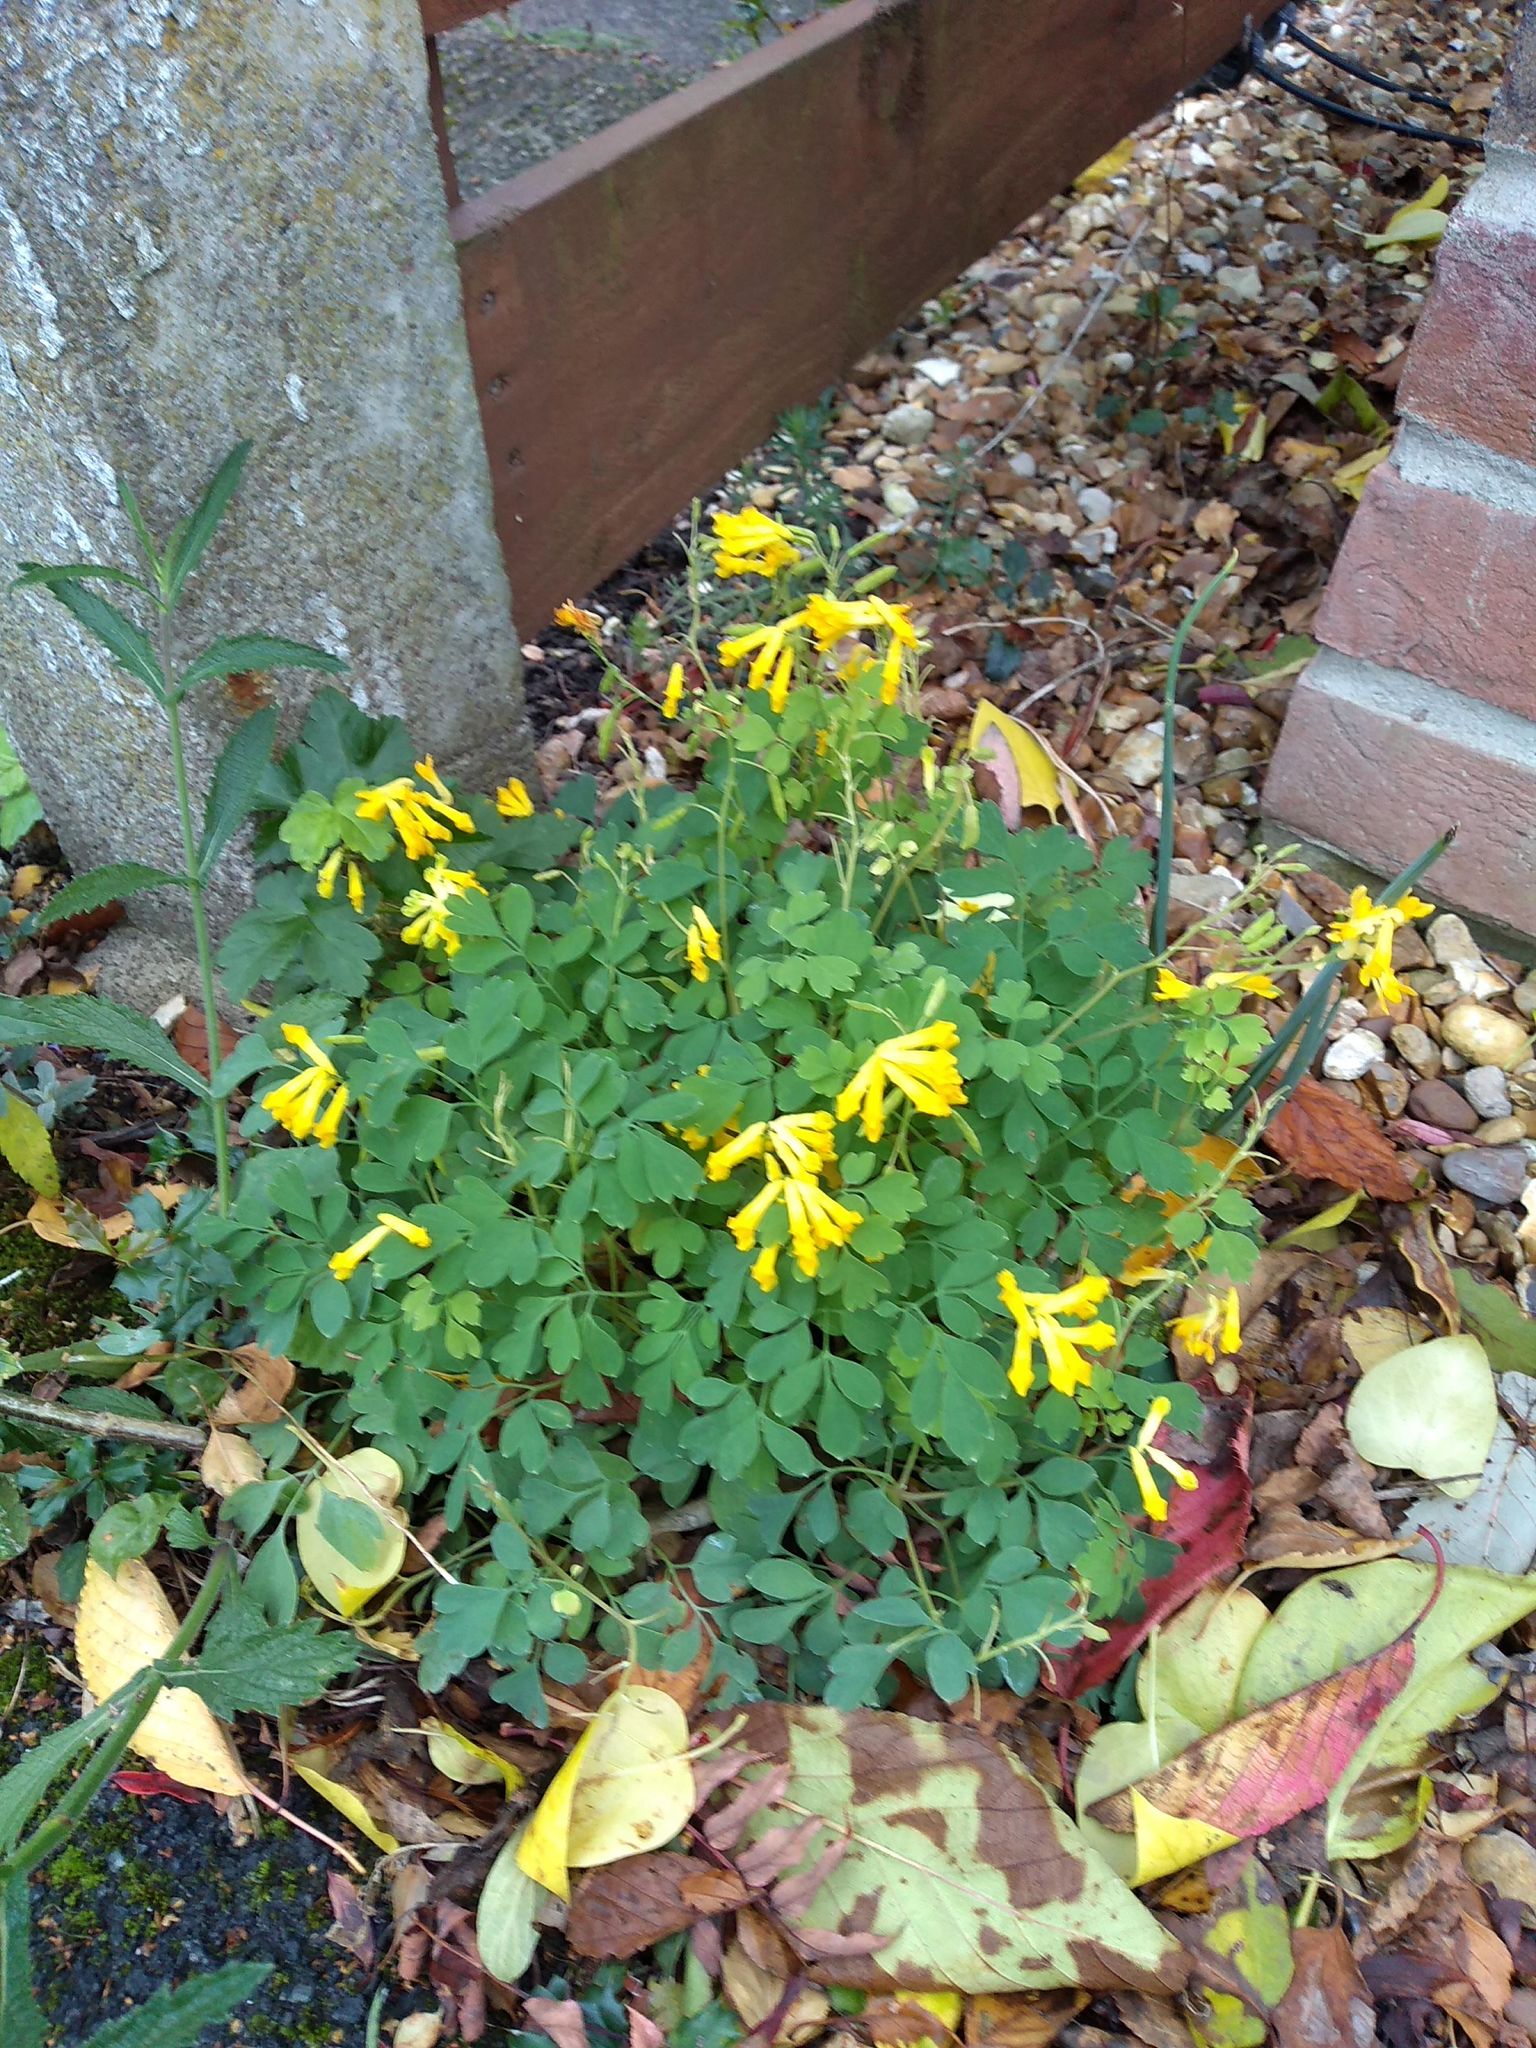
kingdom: Plantae
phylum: Tracheophyta
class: Magnoliopsida
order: Ranunculales
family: Papaveraceae
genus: Pseudofumaria
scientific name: Pseudofumaria lutea
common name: Yellow corydalis
